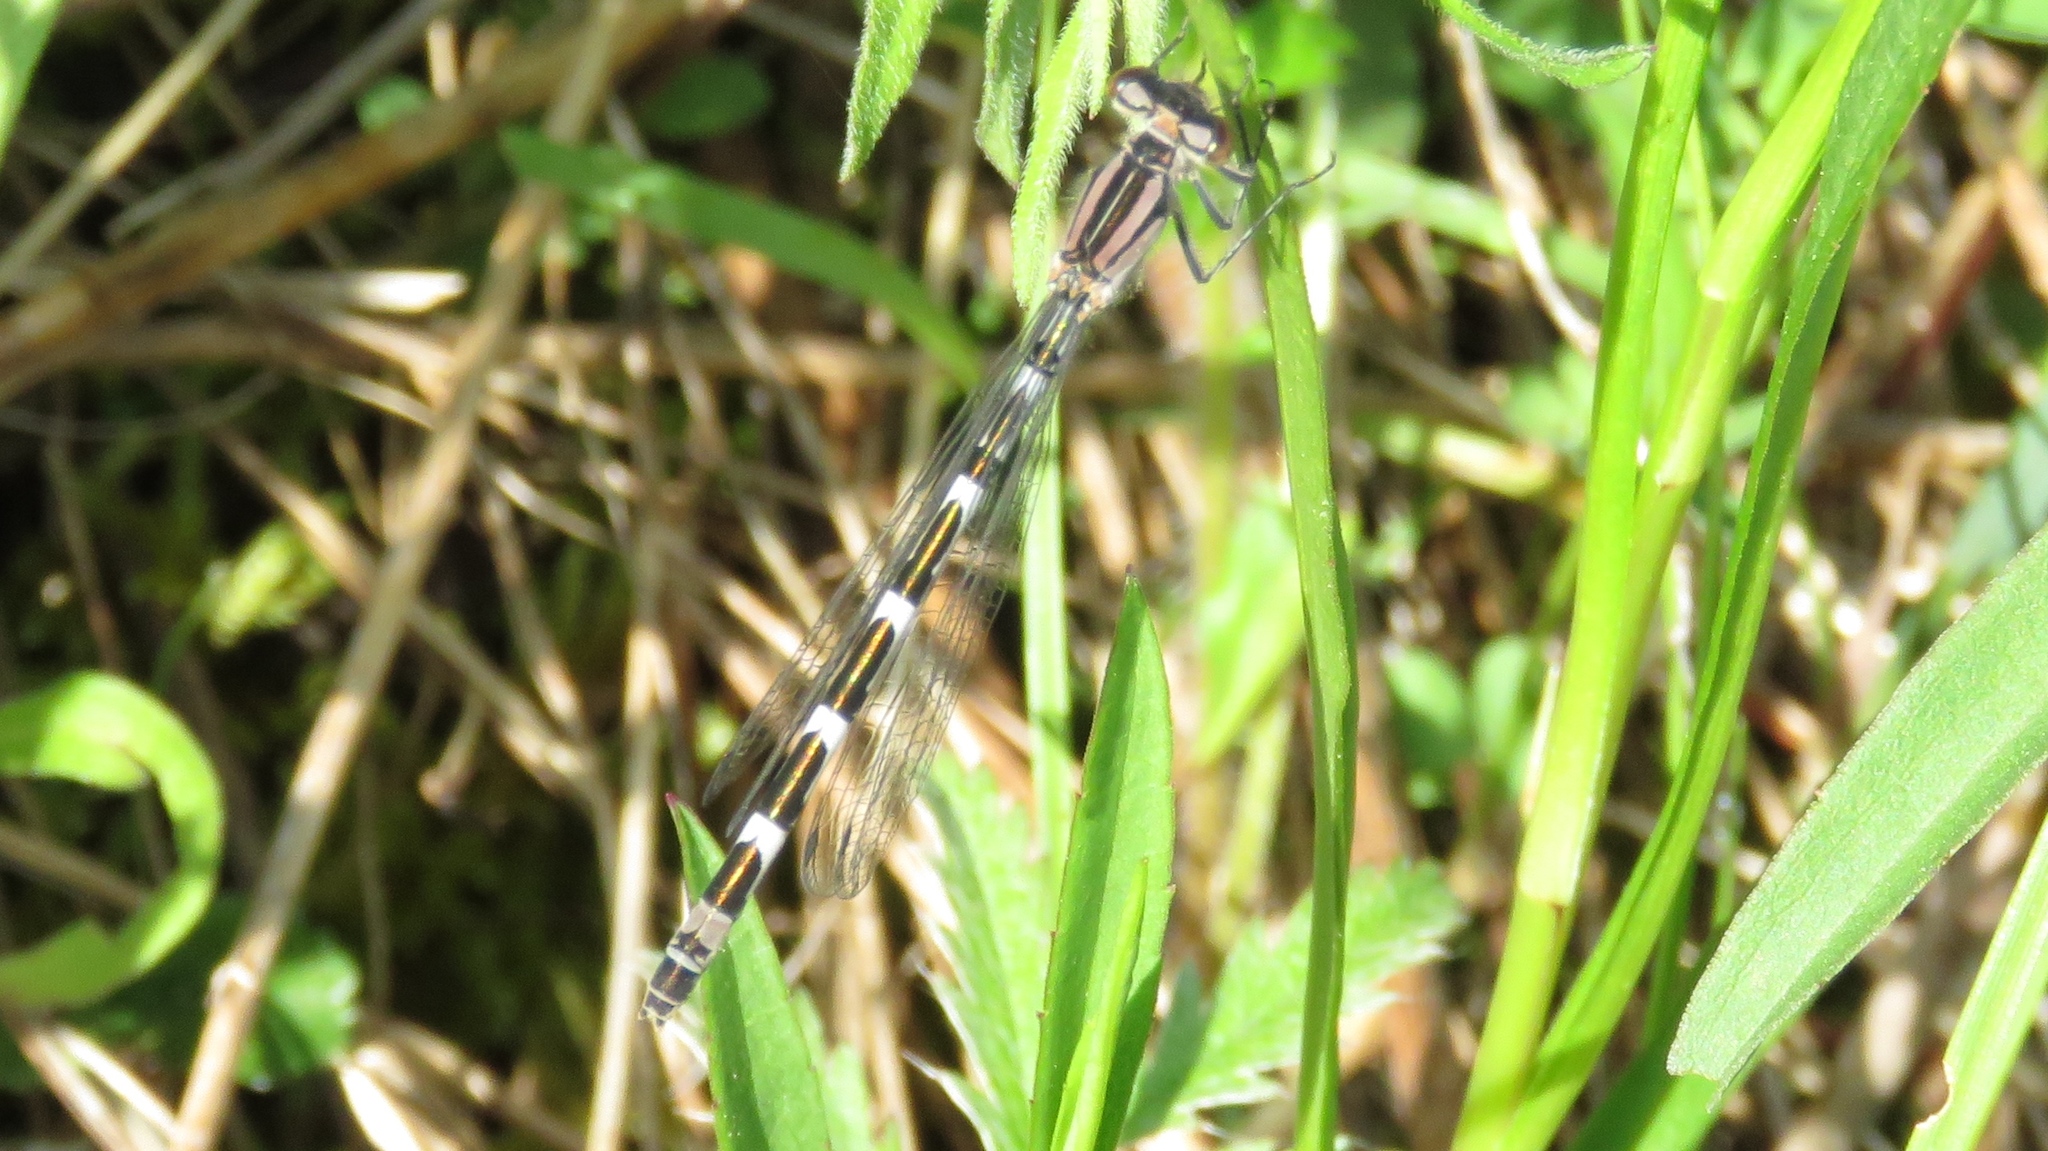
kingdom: Animalia
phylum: Arthropoda
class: Insecta
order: Odonata
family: Coenagrionidae
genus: Ischnura
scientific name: Ischnura verticalis
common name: Eastern forktail
